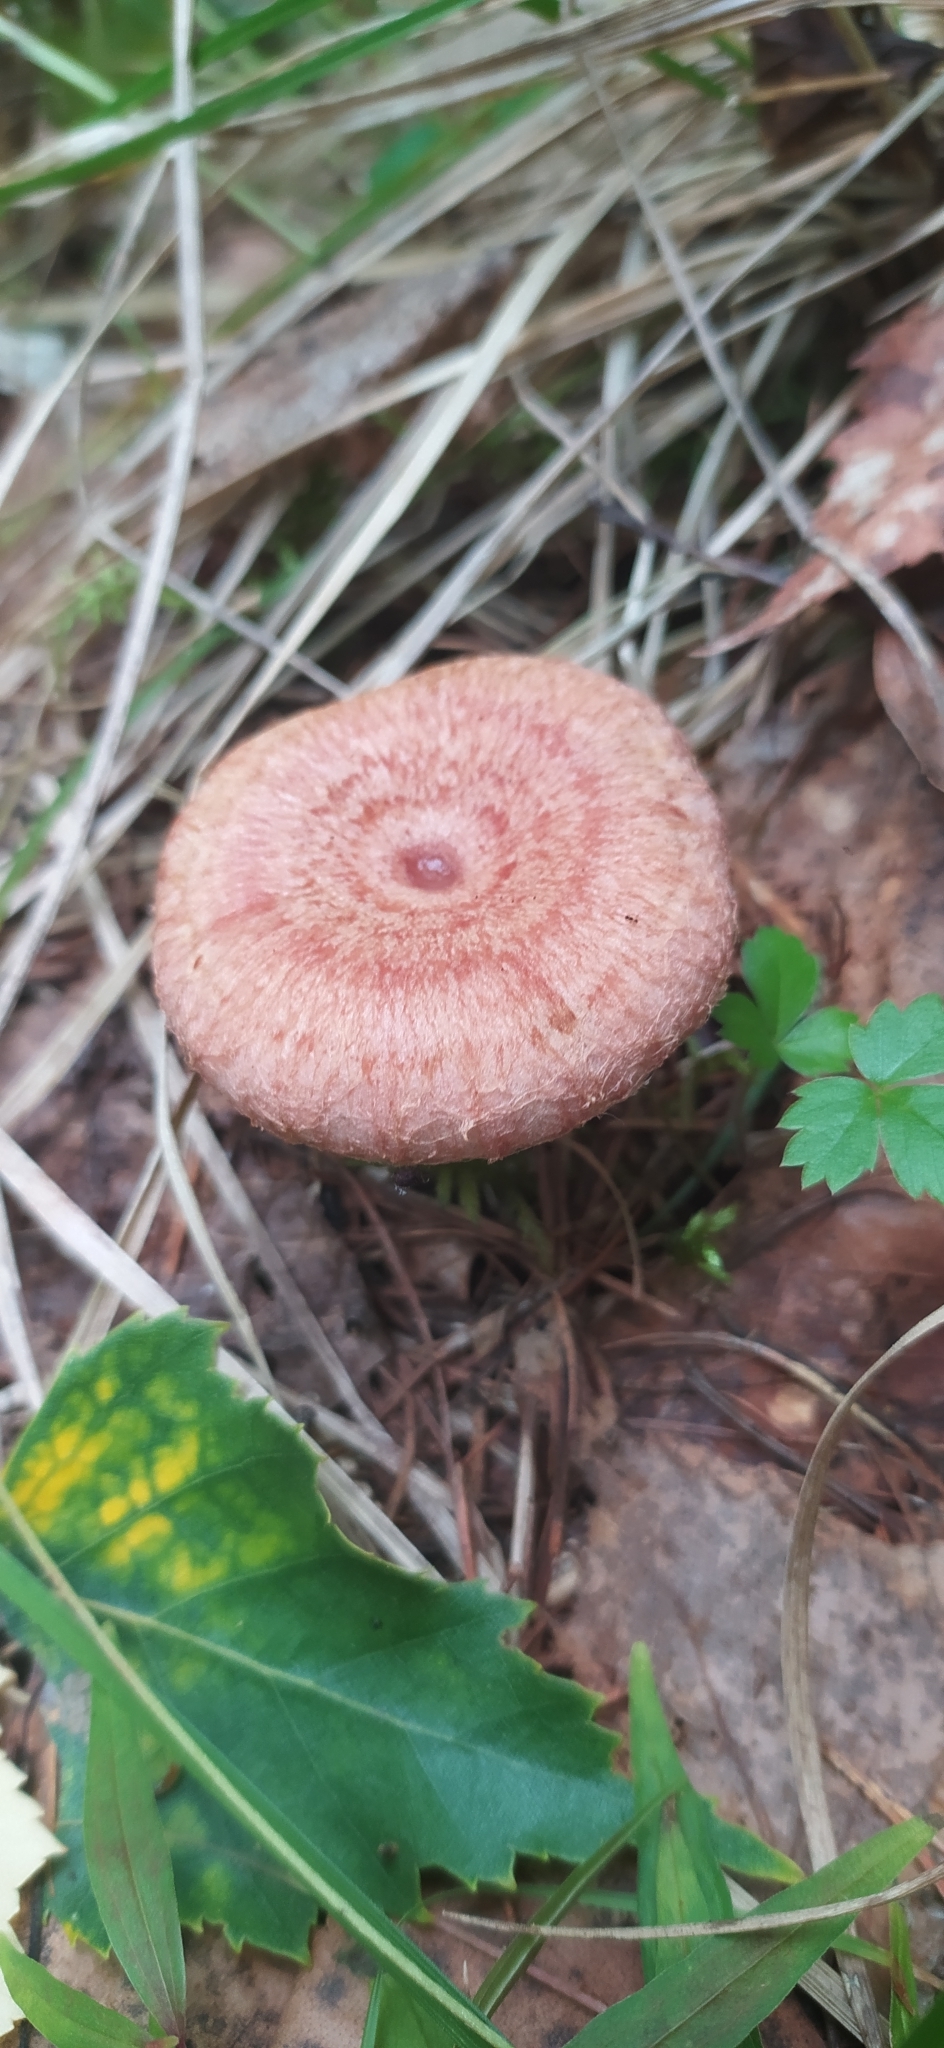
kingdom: Fungi
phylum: Basidiomycota
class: Agaricomycetes
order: Russulales
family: Russulaceae
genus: Lactarius
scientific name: Lactarius torminosus
